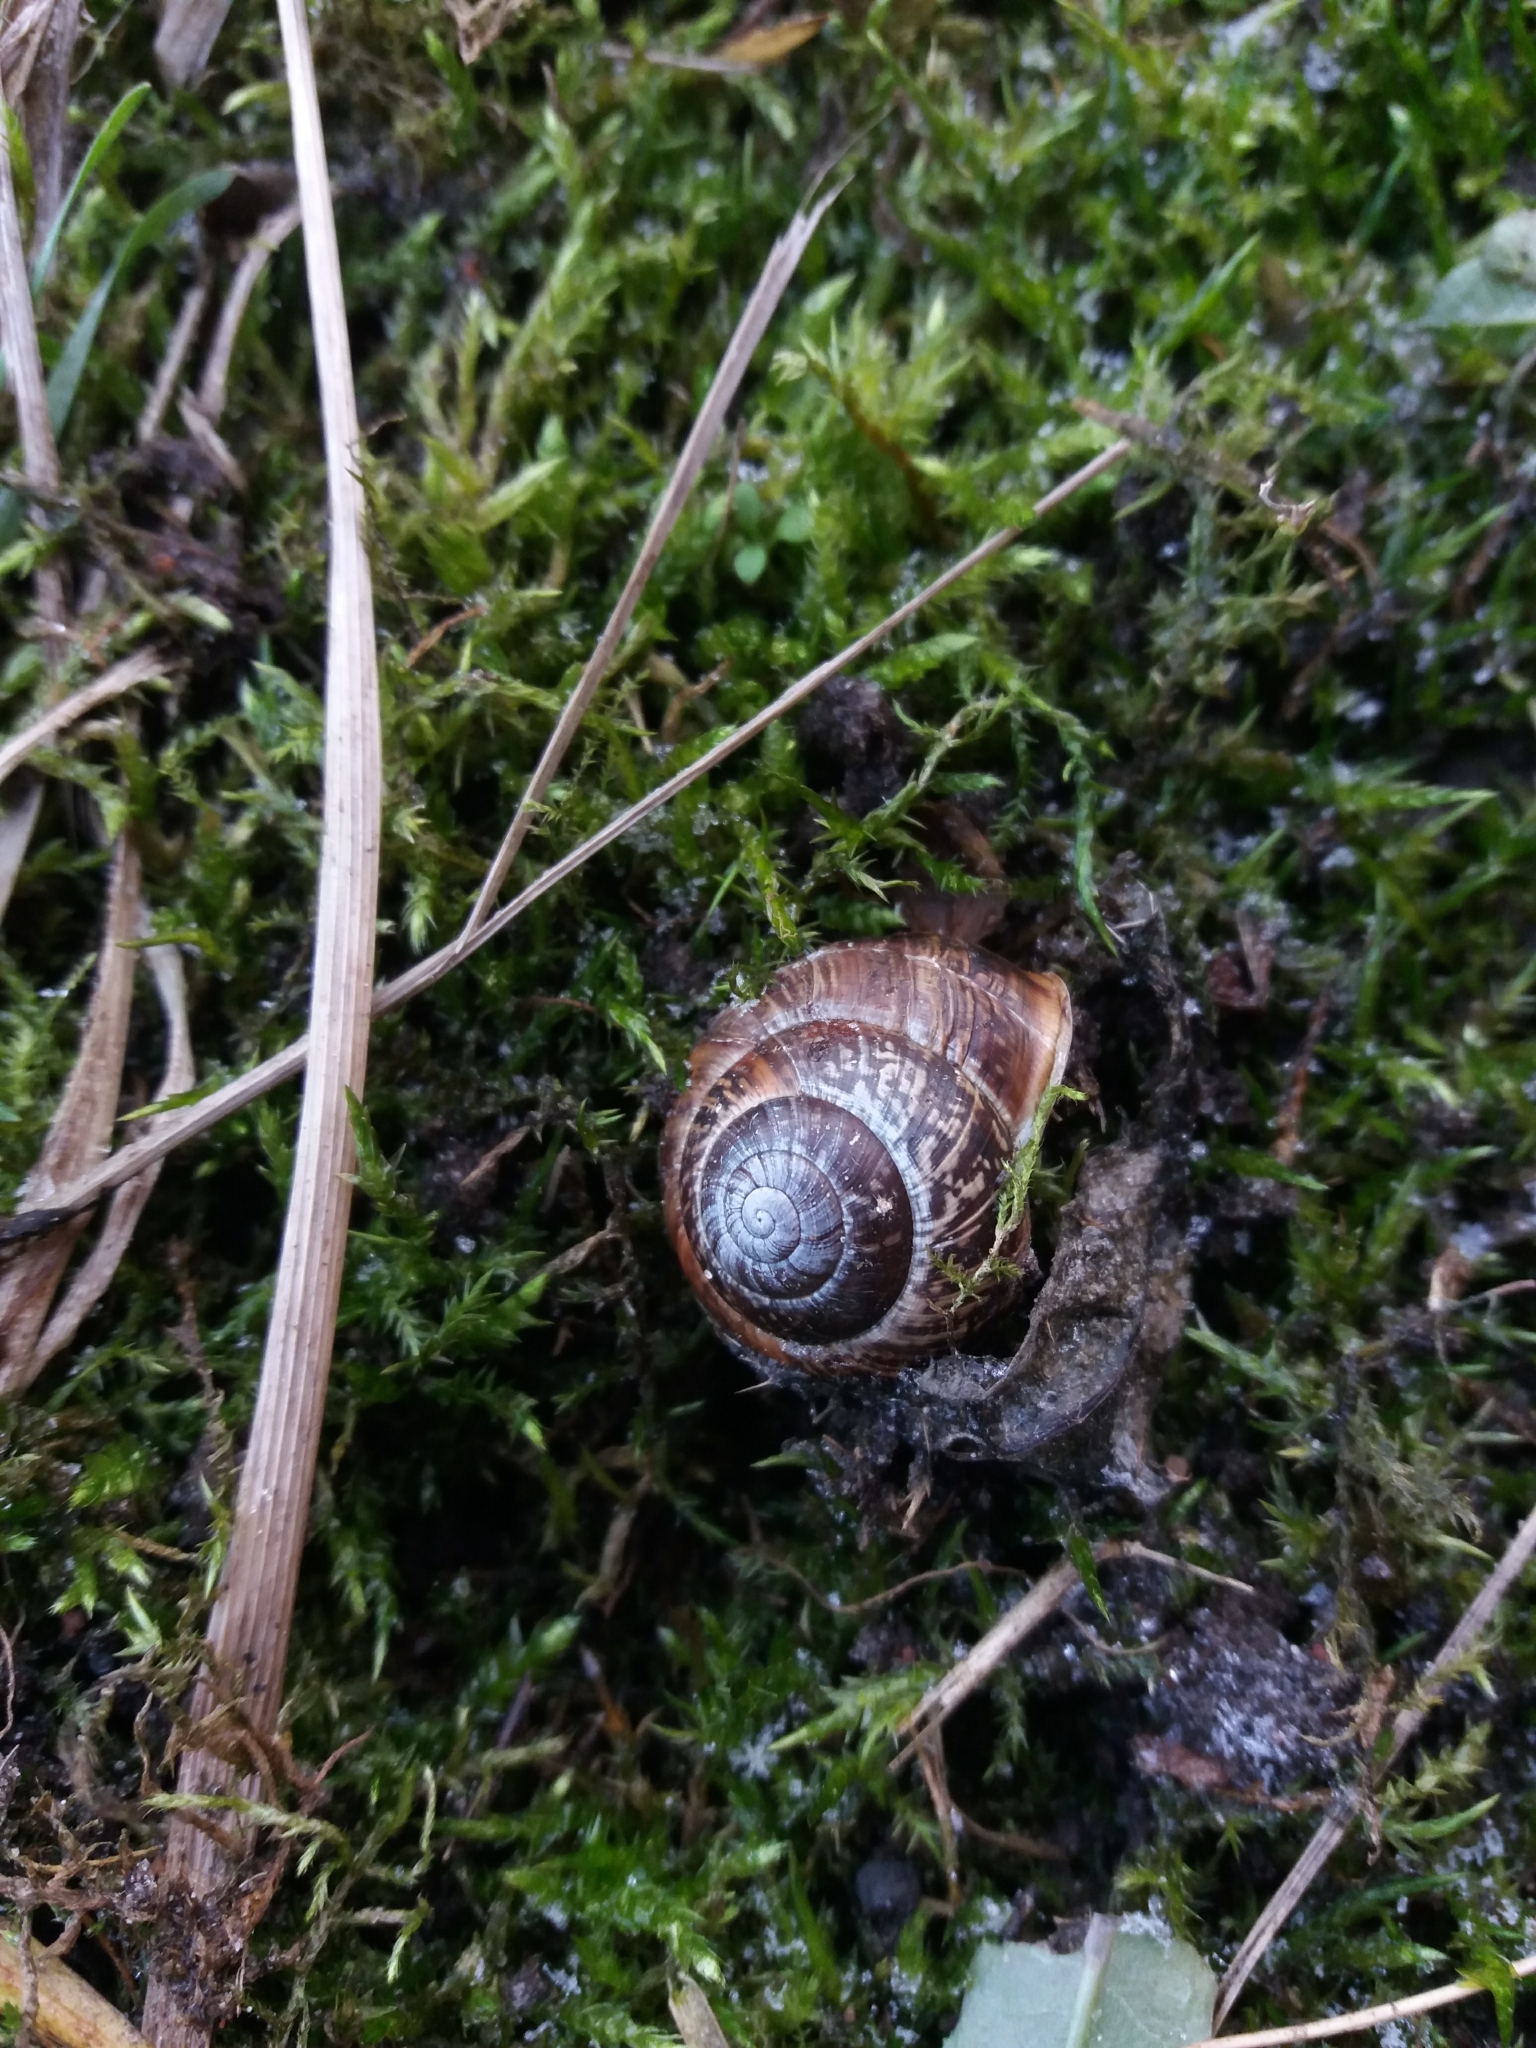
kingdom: Animalia
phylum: Mollusca
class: Gastropoda
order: Stylommatophora
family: Helicidae
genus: Arianta
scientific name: Arianta arbustorum
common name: Copse snail
